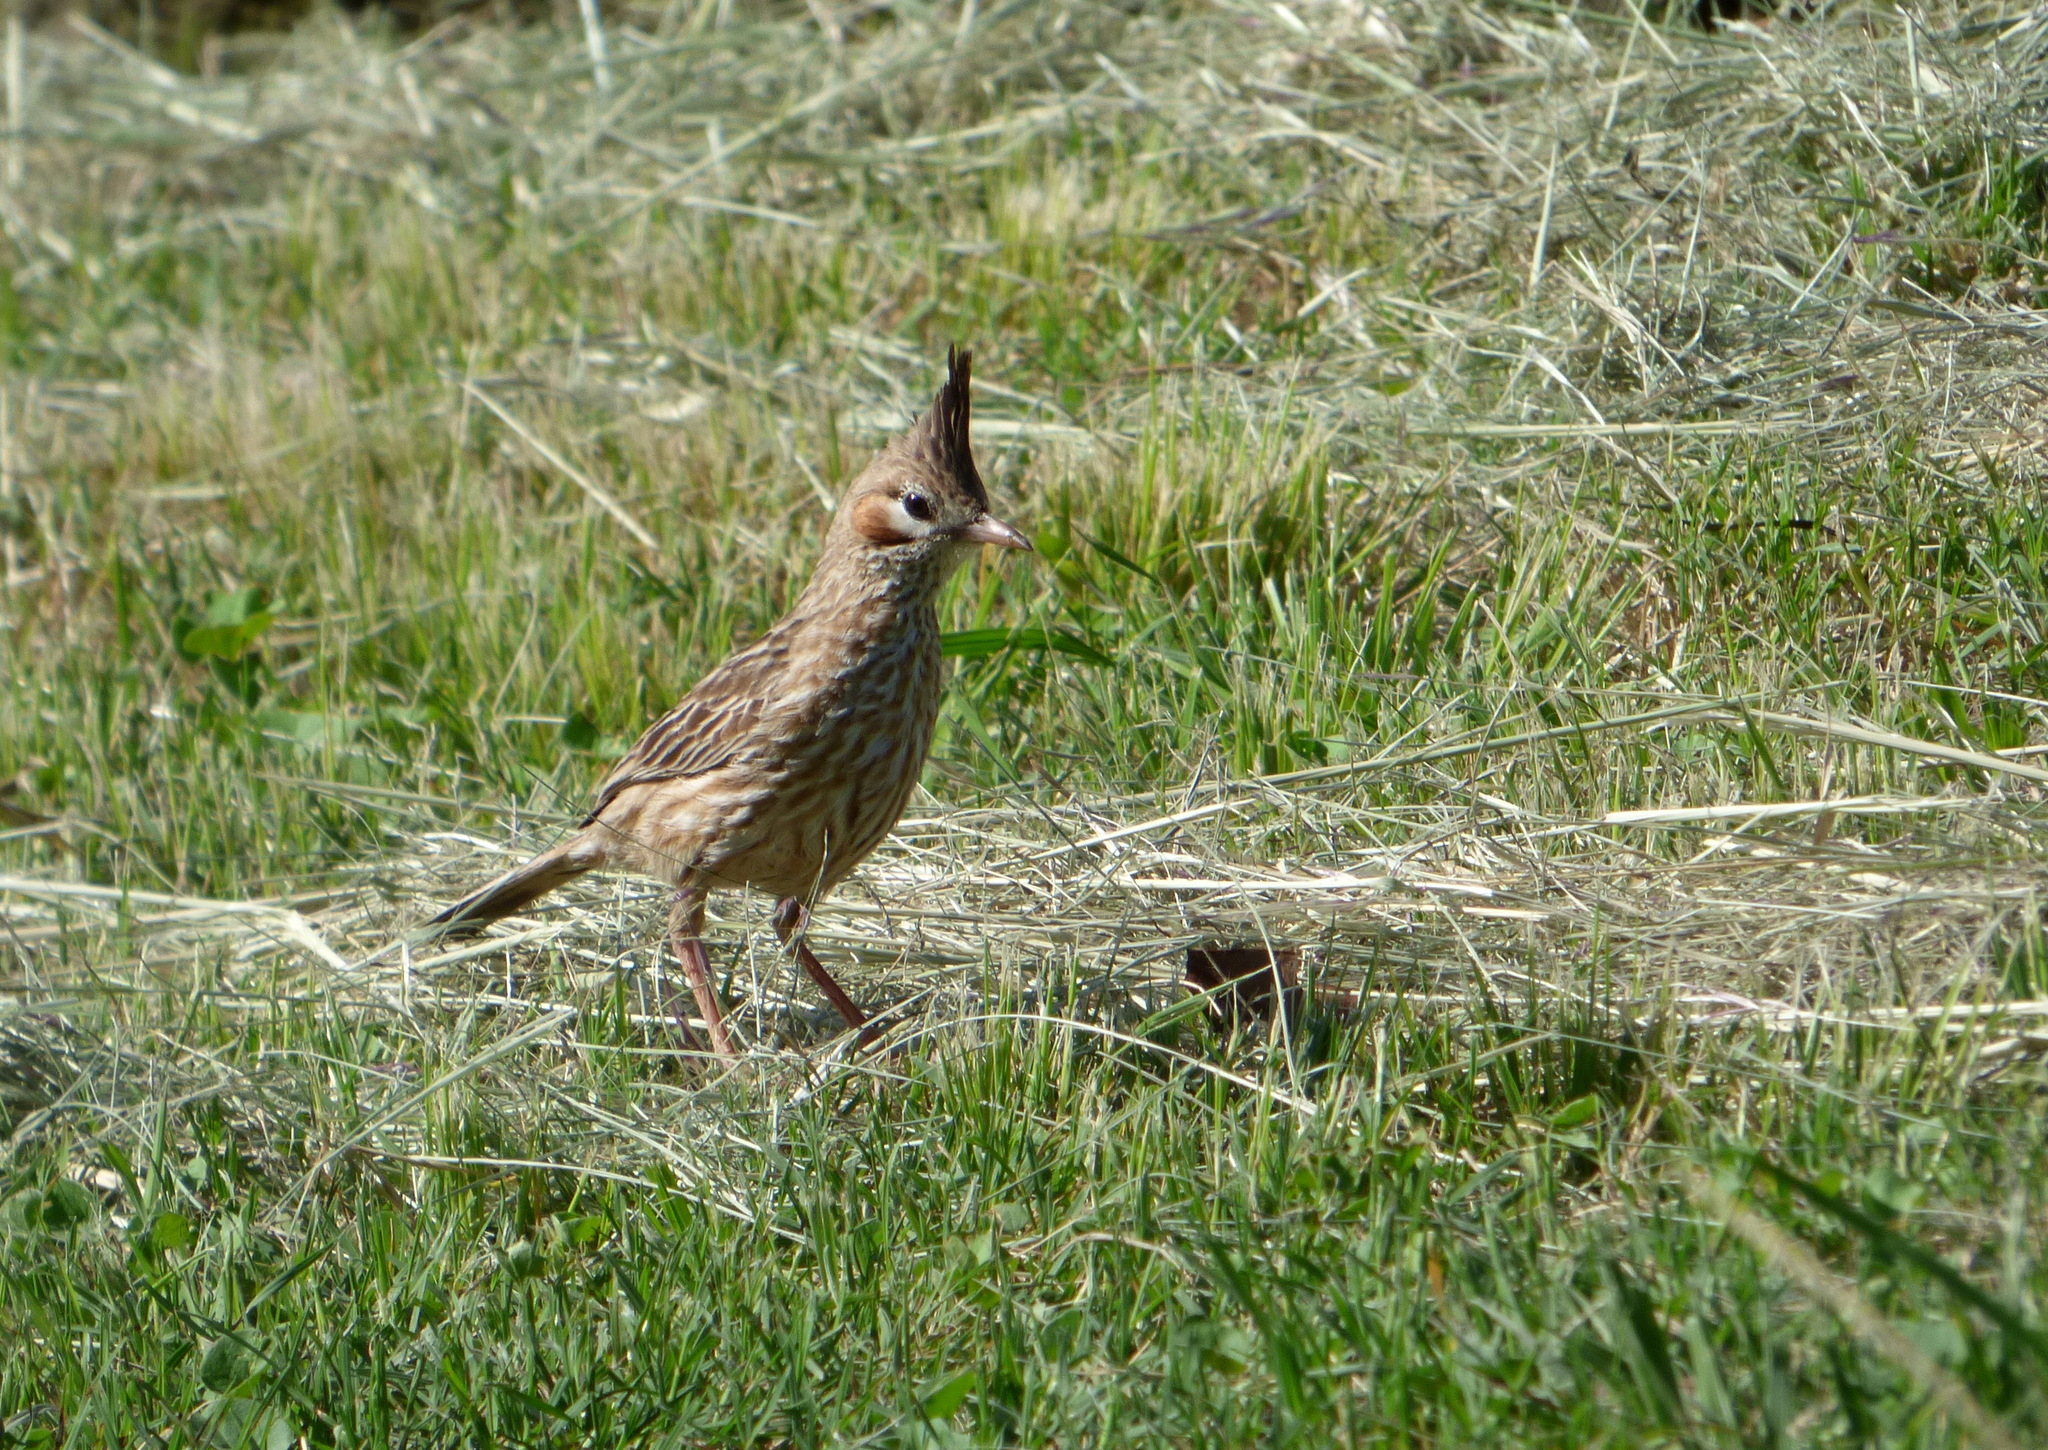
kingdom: Animalia
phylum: Chordata
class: Aves
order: Passeriformes
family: Furnariidae
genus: Coryphistera
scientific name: Coryphistera alaudina
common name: Lark-like brushrunner
